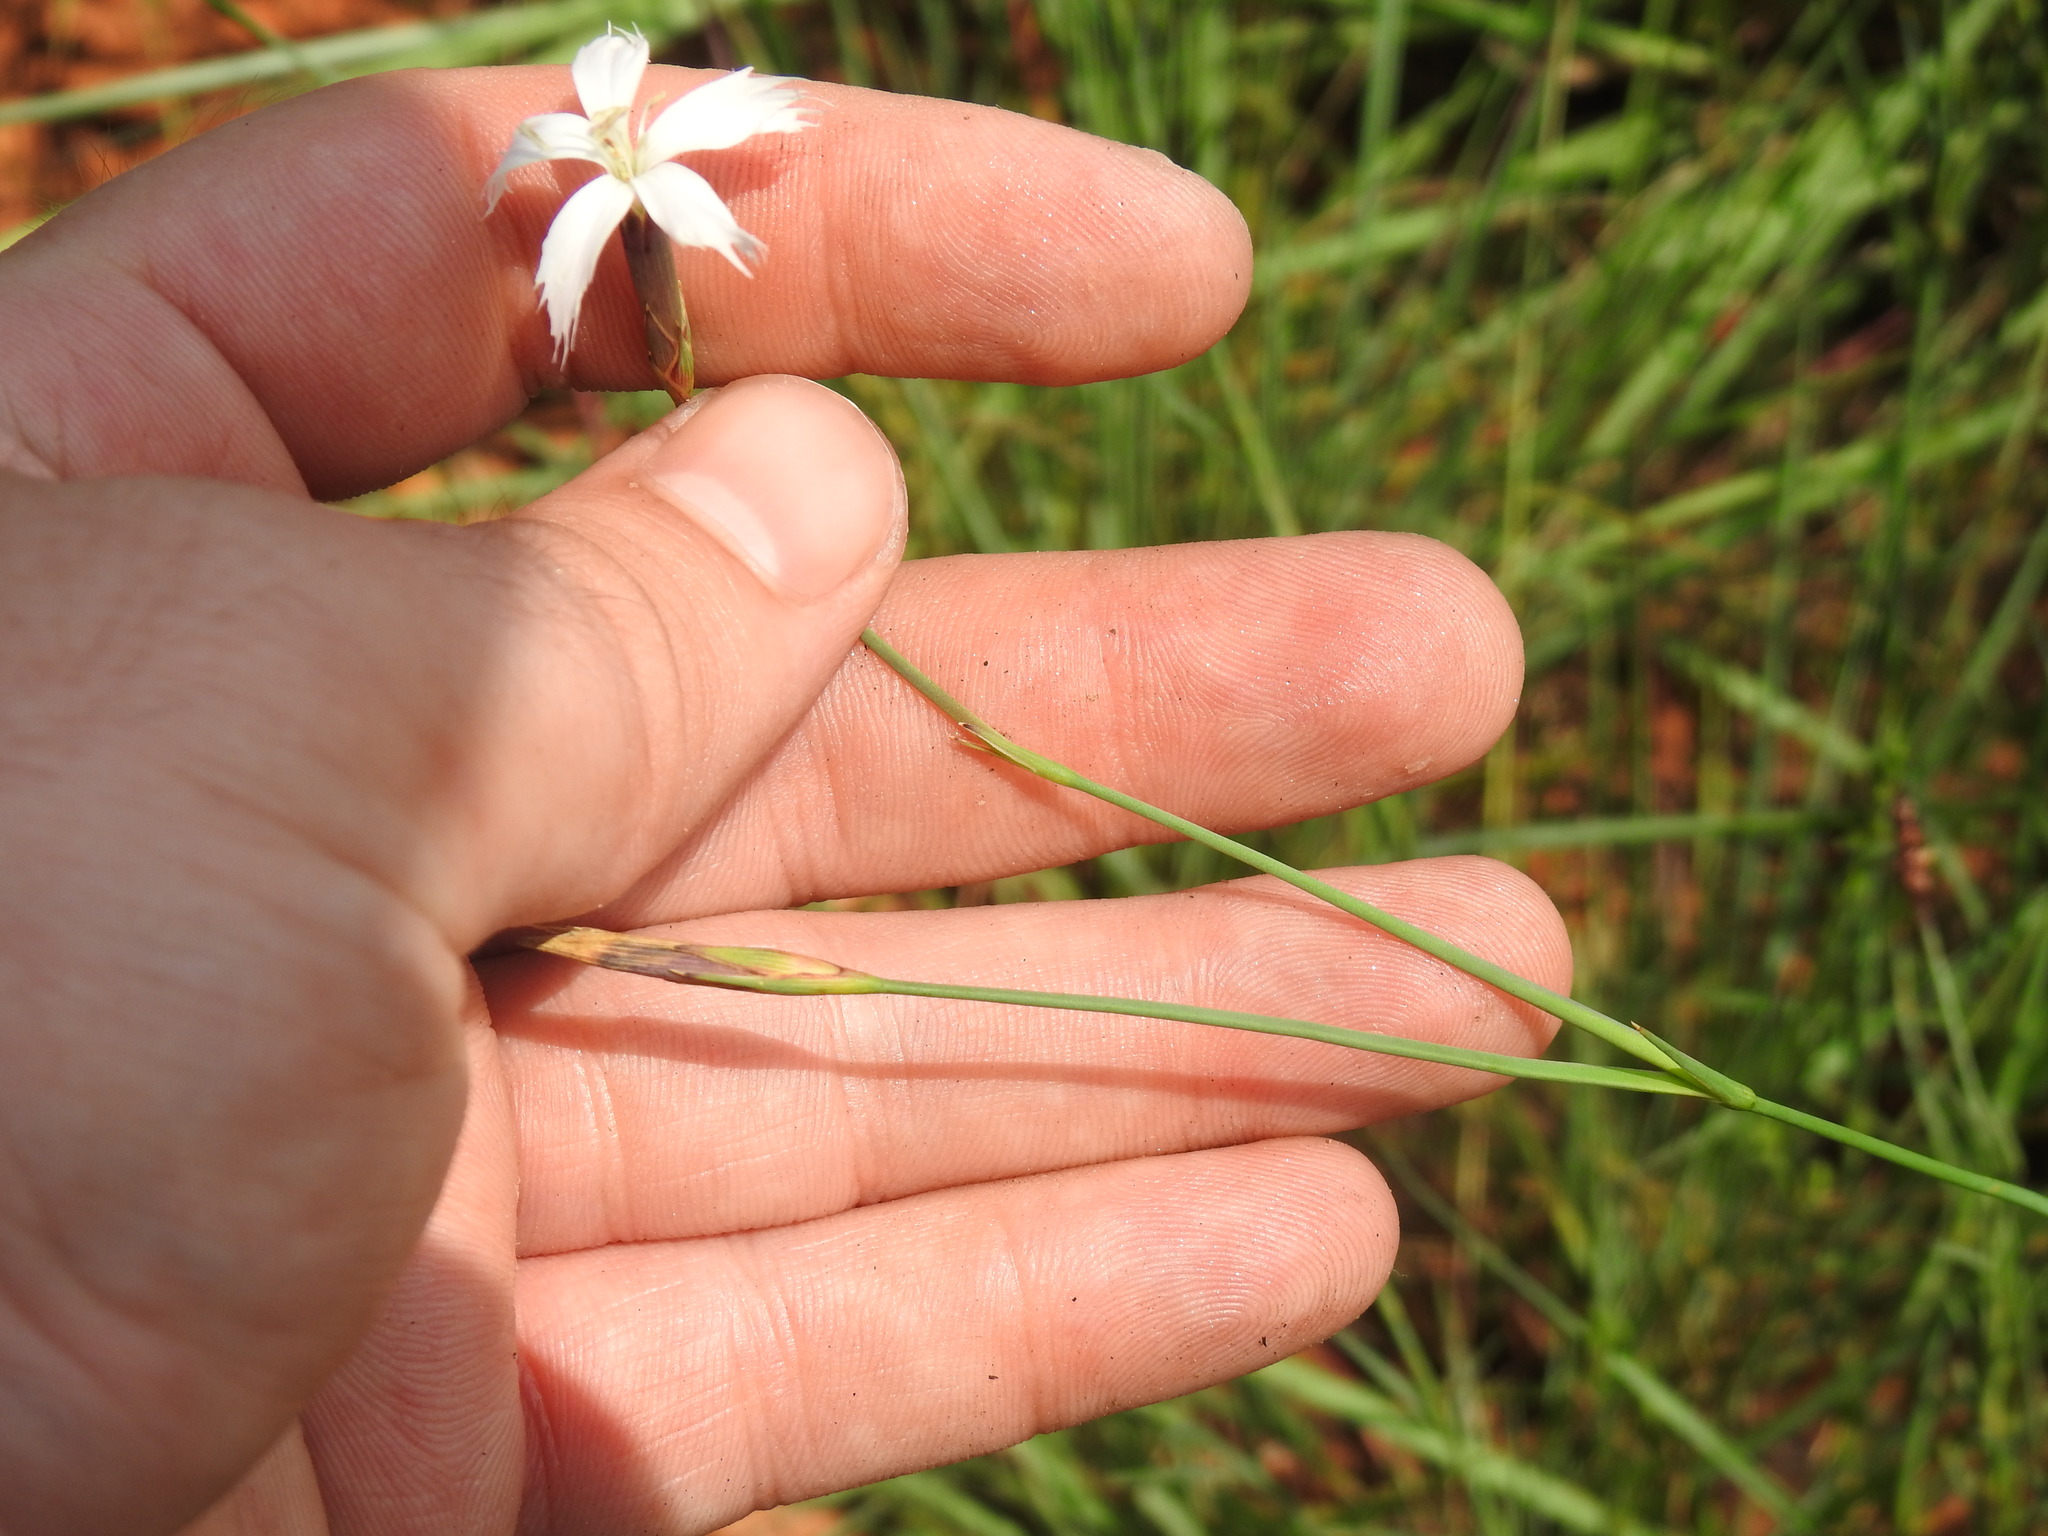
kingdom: Plantae
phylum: Tracheophyta
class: Magnoliopsida
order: Caryophyllales
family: Caryophyllaceae
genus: Dianthus
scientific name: Dianthus mooiensis
